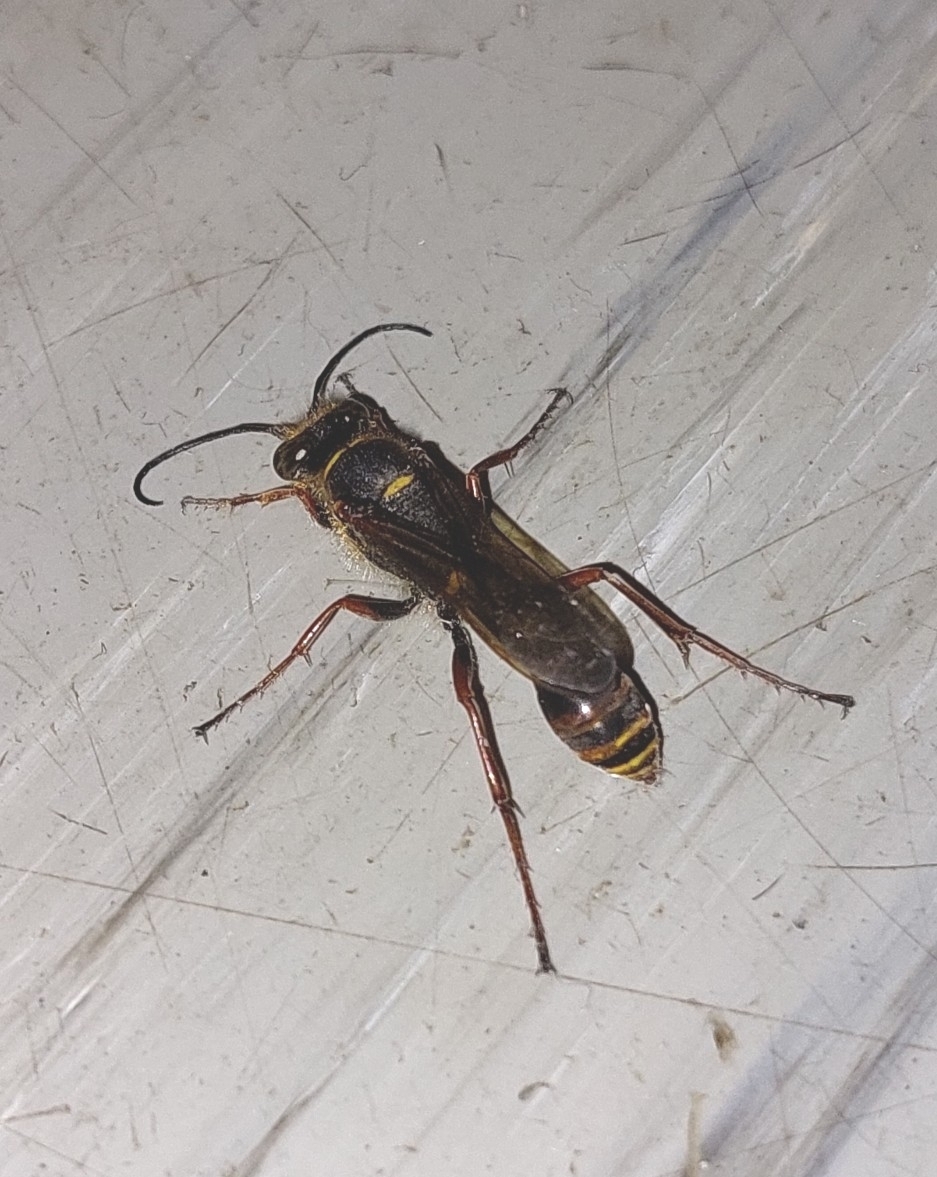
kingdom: Animalia
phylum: Arthropoda
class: Insecta
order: Hymenoptera
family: Sphecidae
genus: Sceliphron
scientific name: Sceliphron curvatum
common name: Pèlopèe
